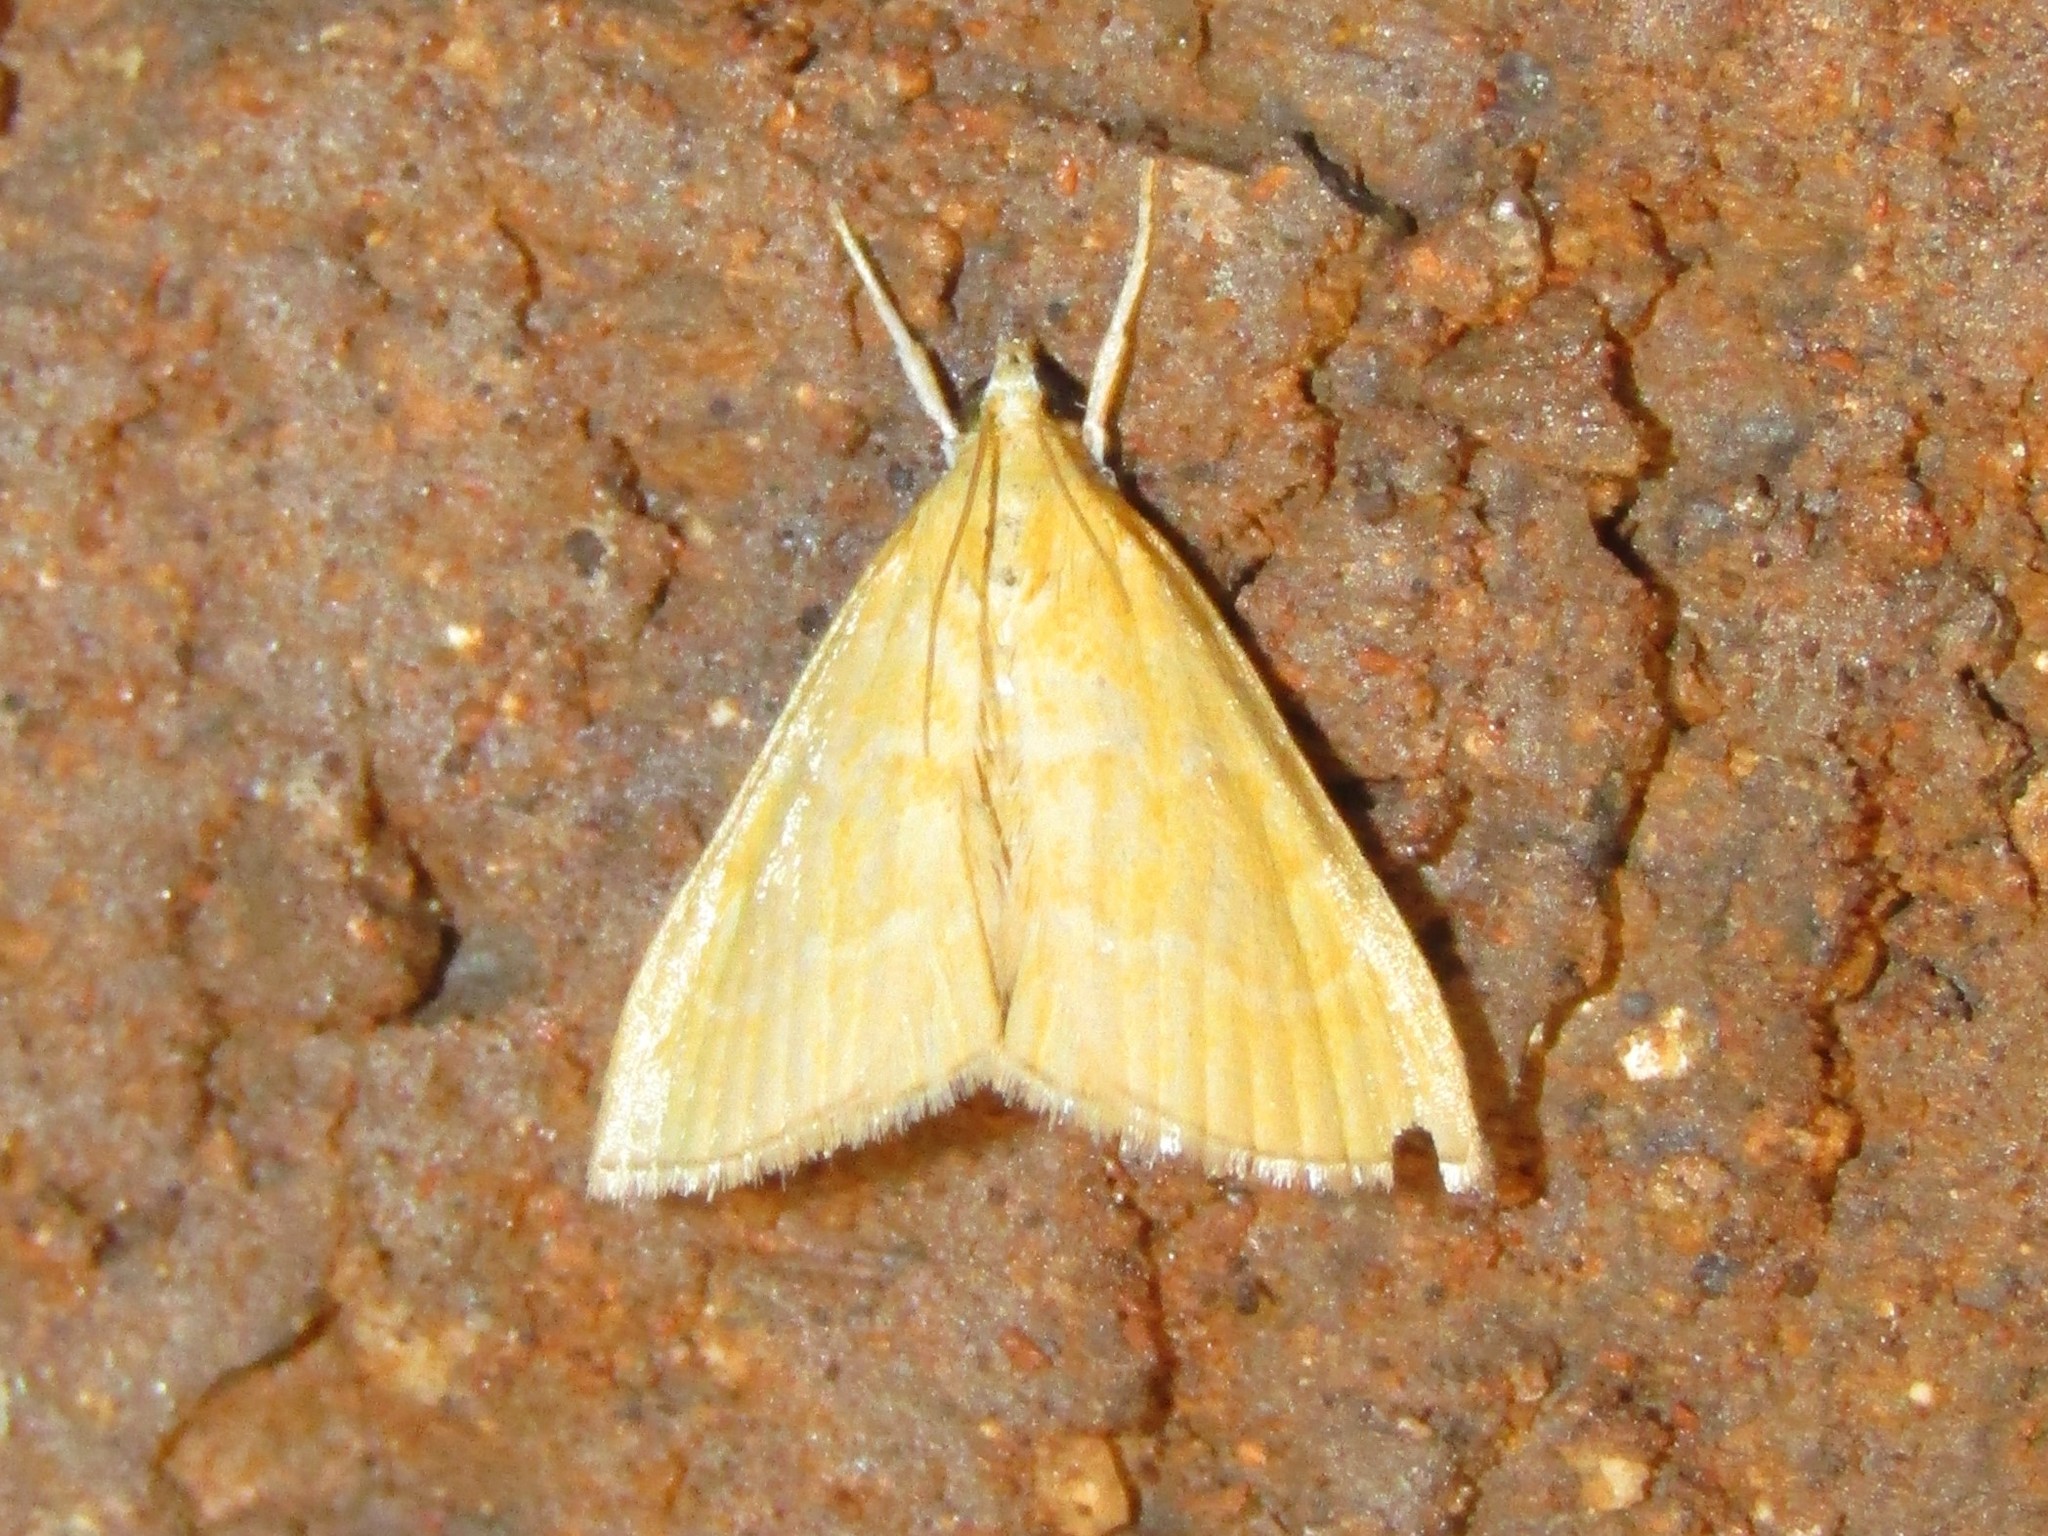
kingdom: Animalia
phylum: Arthropoda
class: Insecta
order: Lepidoptera
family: Crambidae
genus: Glaphyria
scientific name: Glaphyria invisalis
